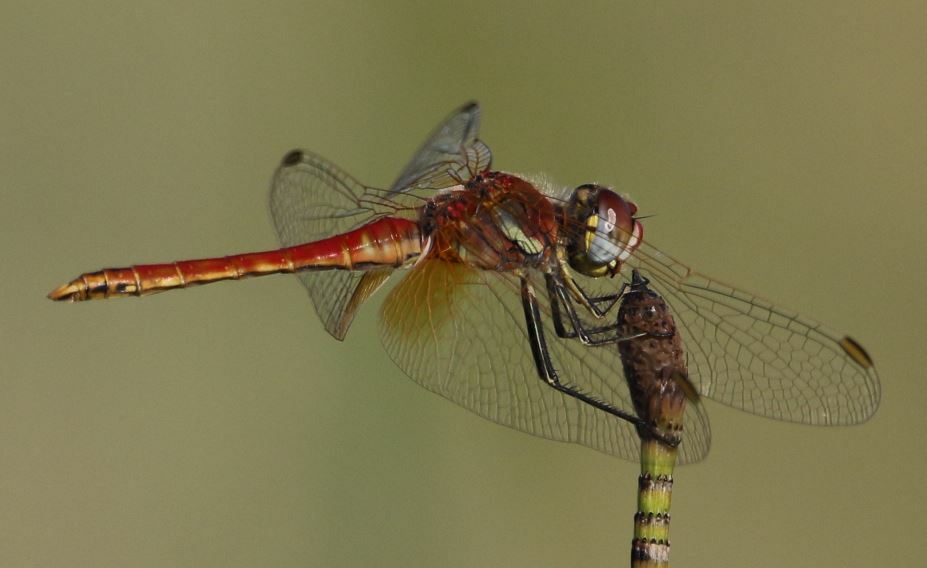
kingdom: Animalia
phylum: Arthropoda
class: Insecta
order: Odonata
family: Libellulidae
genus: Sympetrum
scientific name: Sympetrum fonscolombii
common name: Red-veined darter
